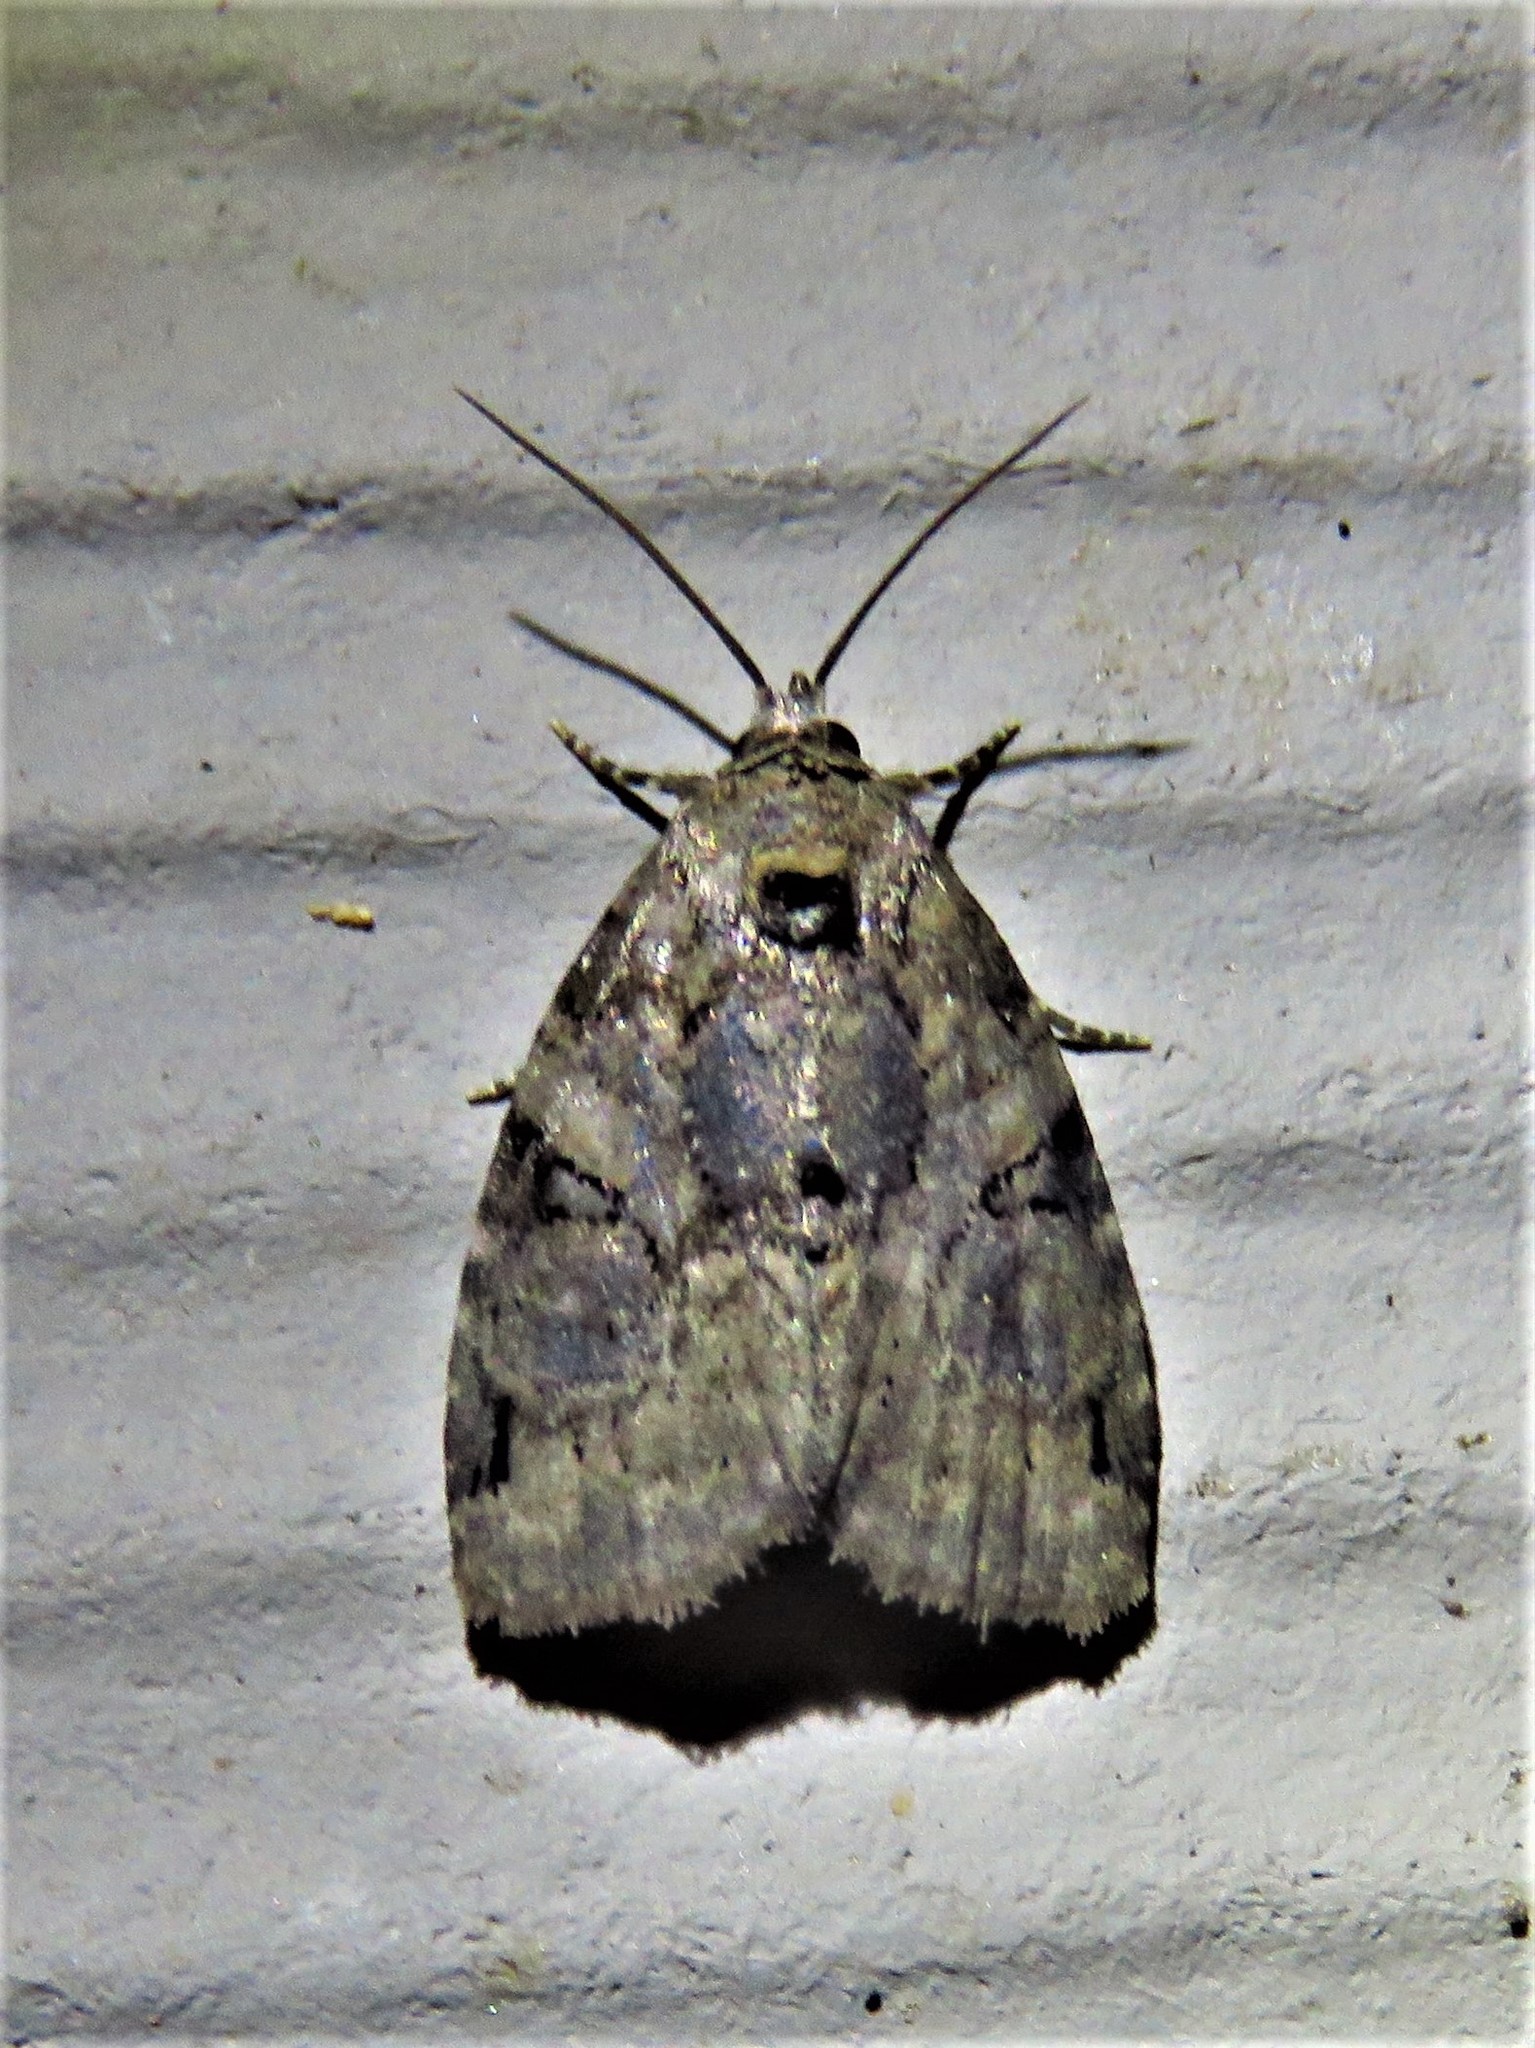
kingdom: Animalia
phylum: Arthropoda
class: Insecta
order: Lepidoptera
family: Noctuidae
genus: Pseudeustrotia
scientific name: Pseudeustrotia indeterminata
